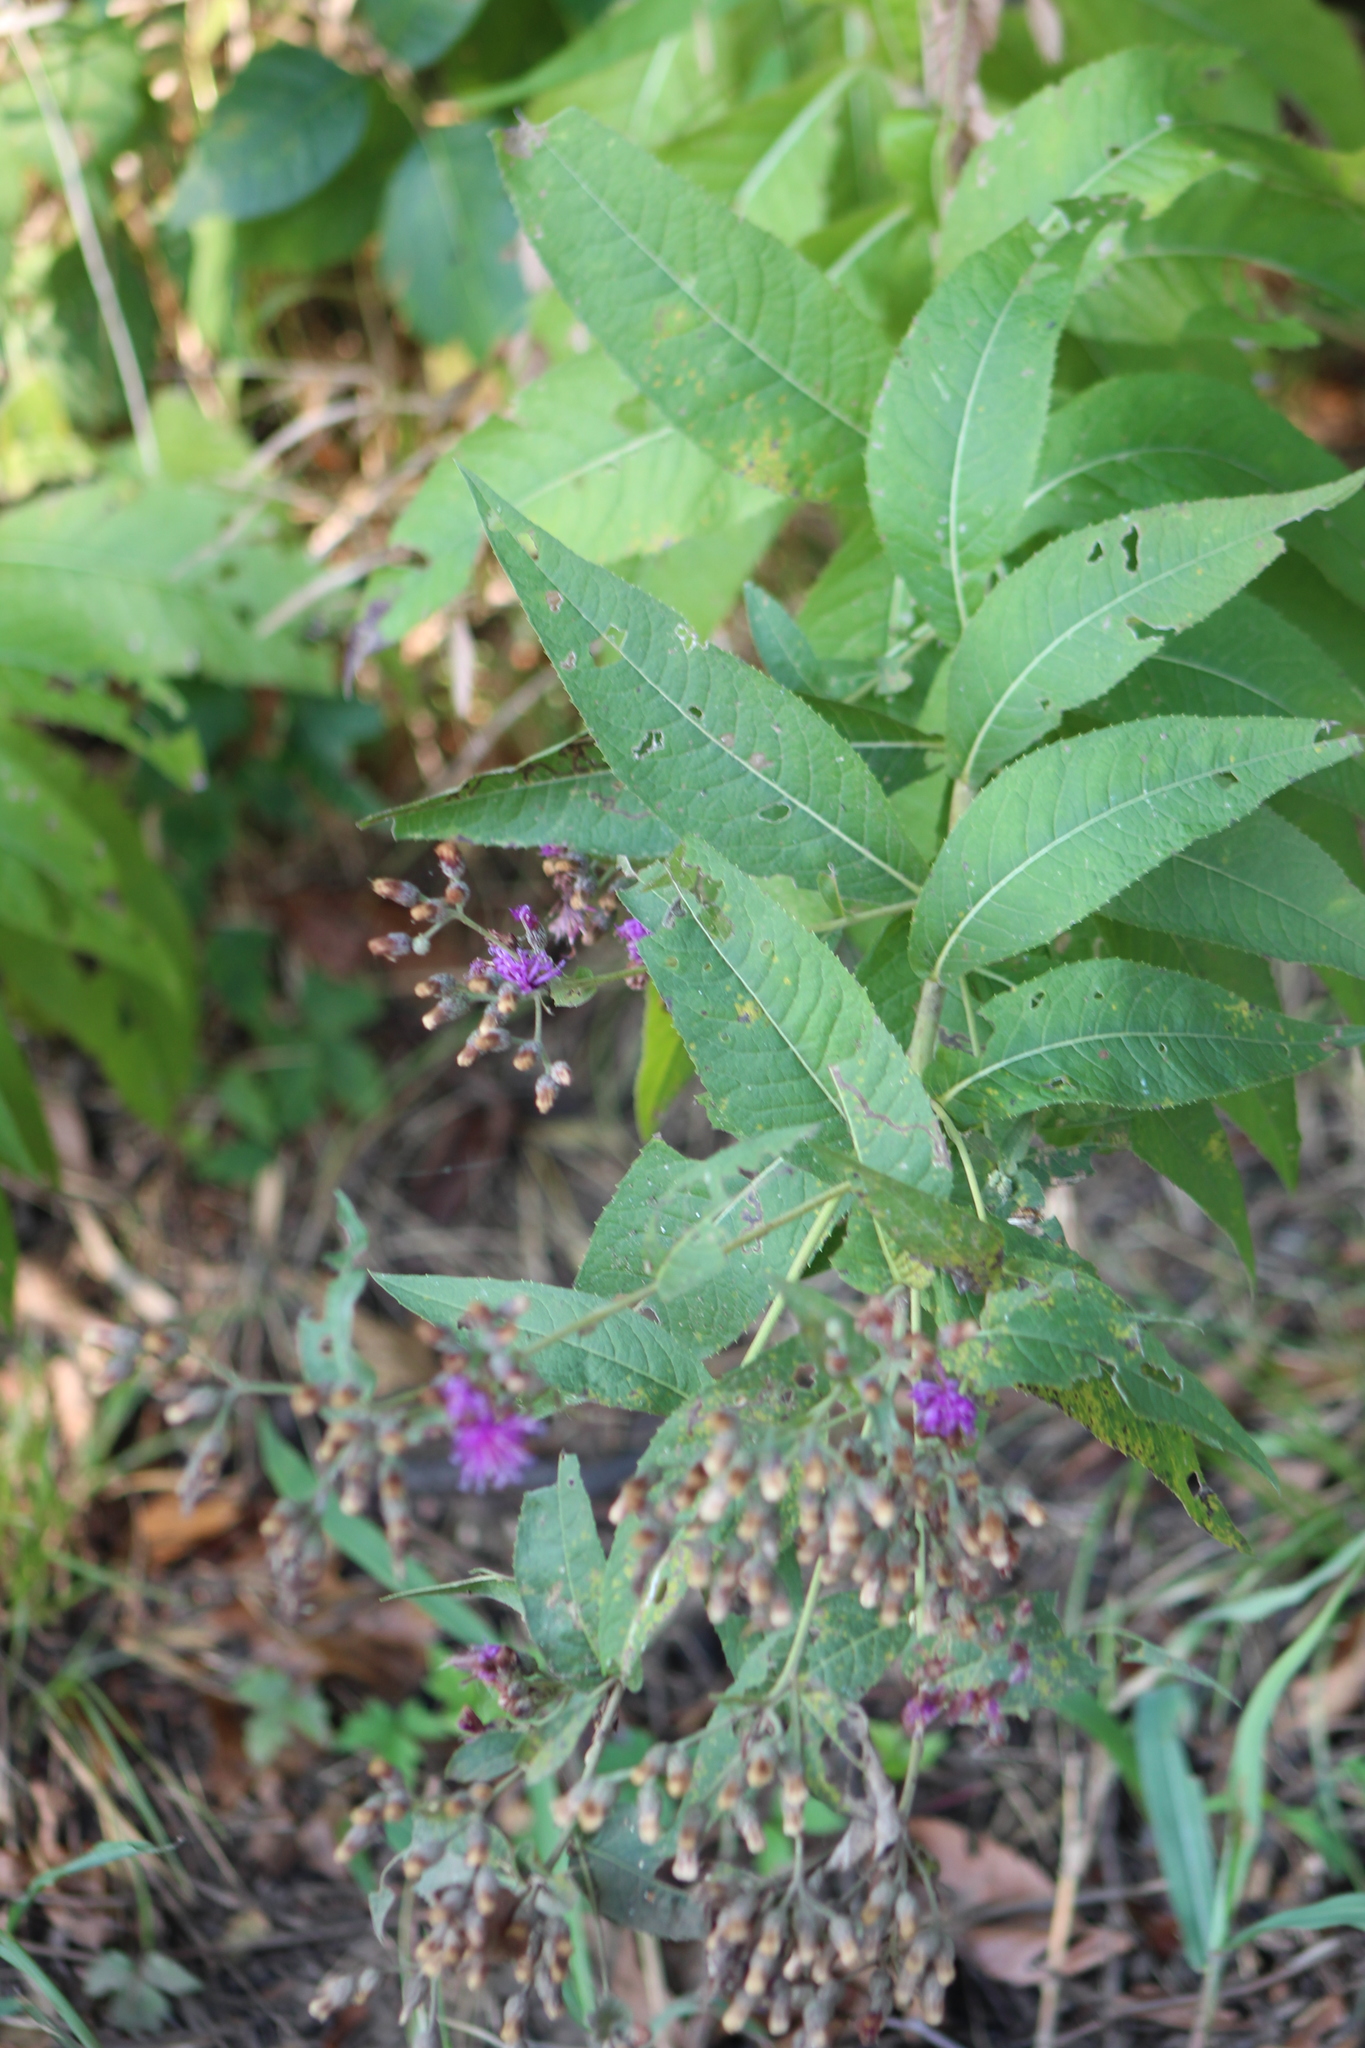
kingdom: Plantae
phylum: Tracheophyta
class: Magnoliopsida
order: Asterales
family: Asteraceae
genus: Vernonia
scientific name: Vernonia baldwinii
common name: Western ironweed
